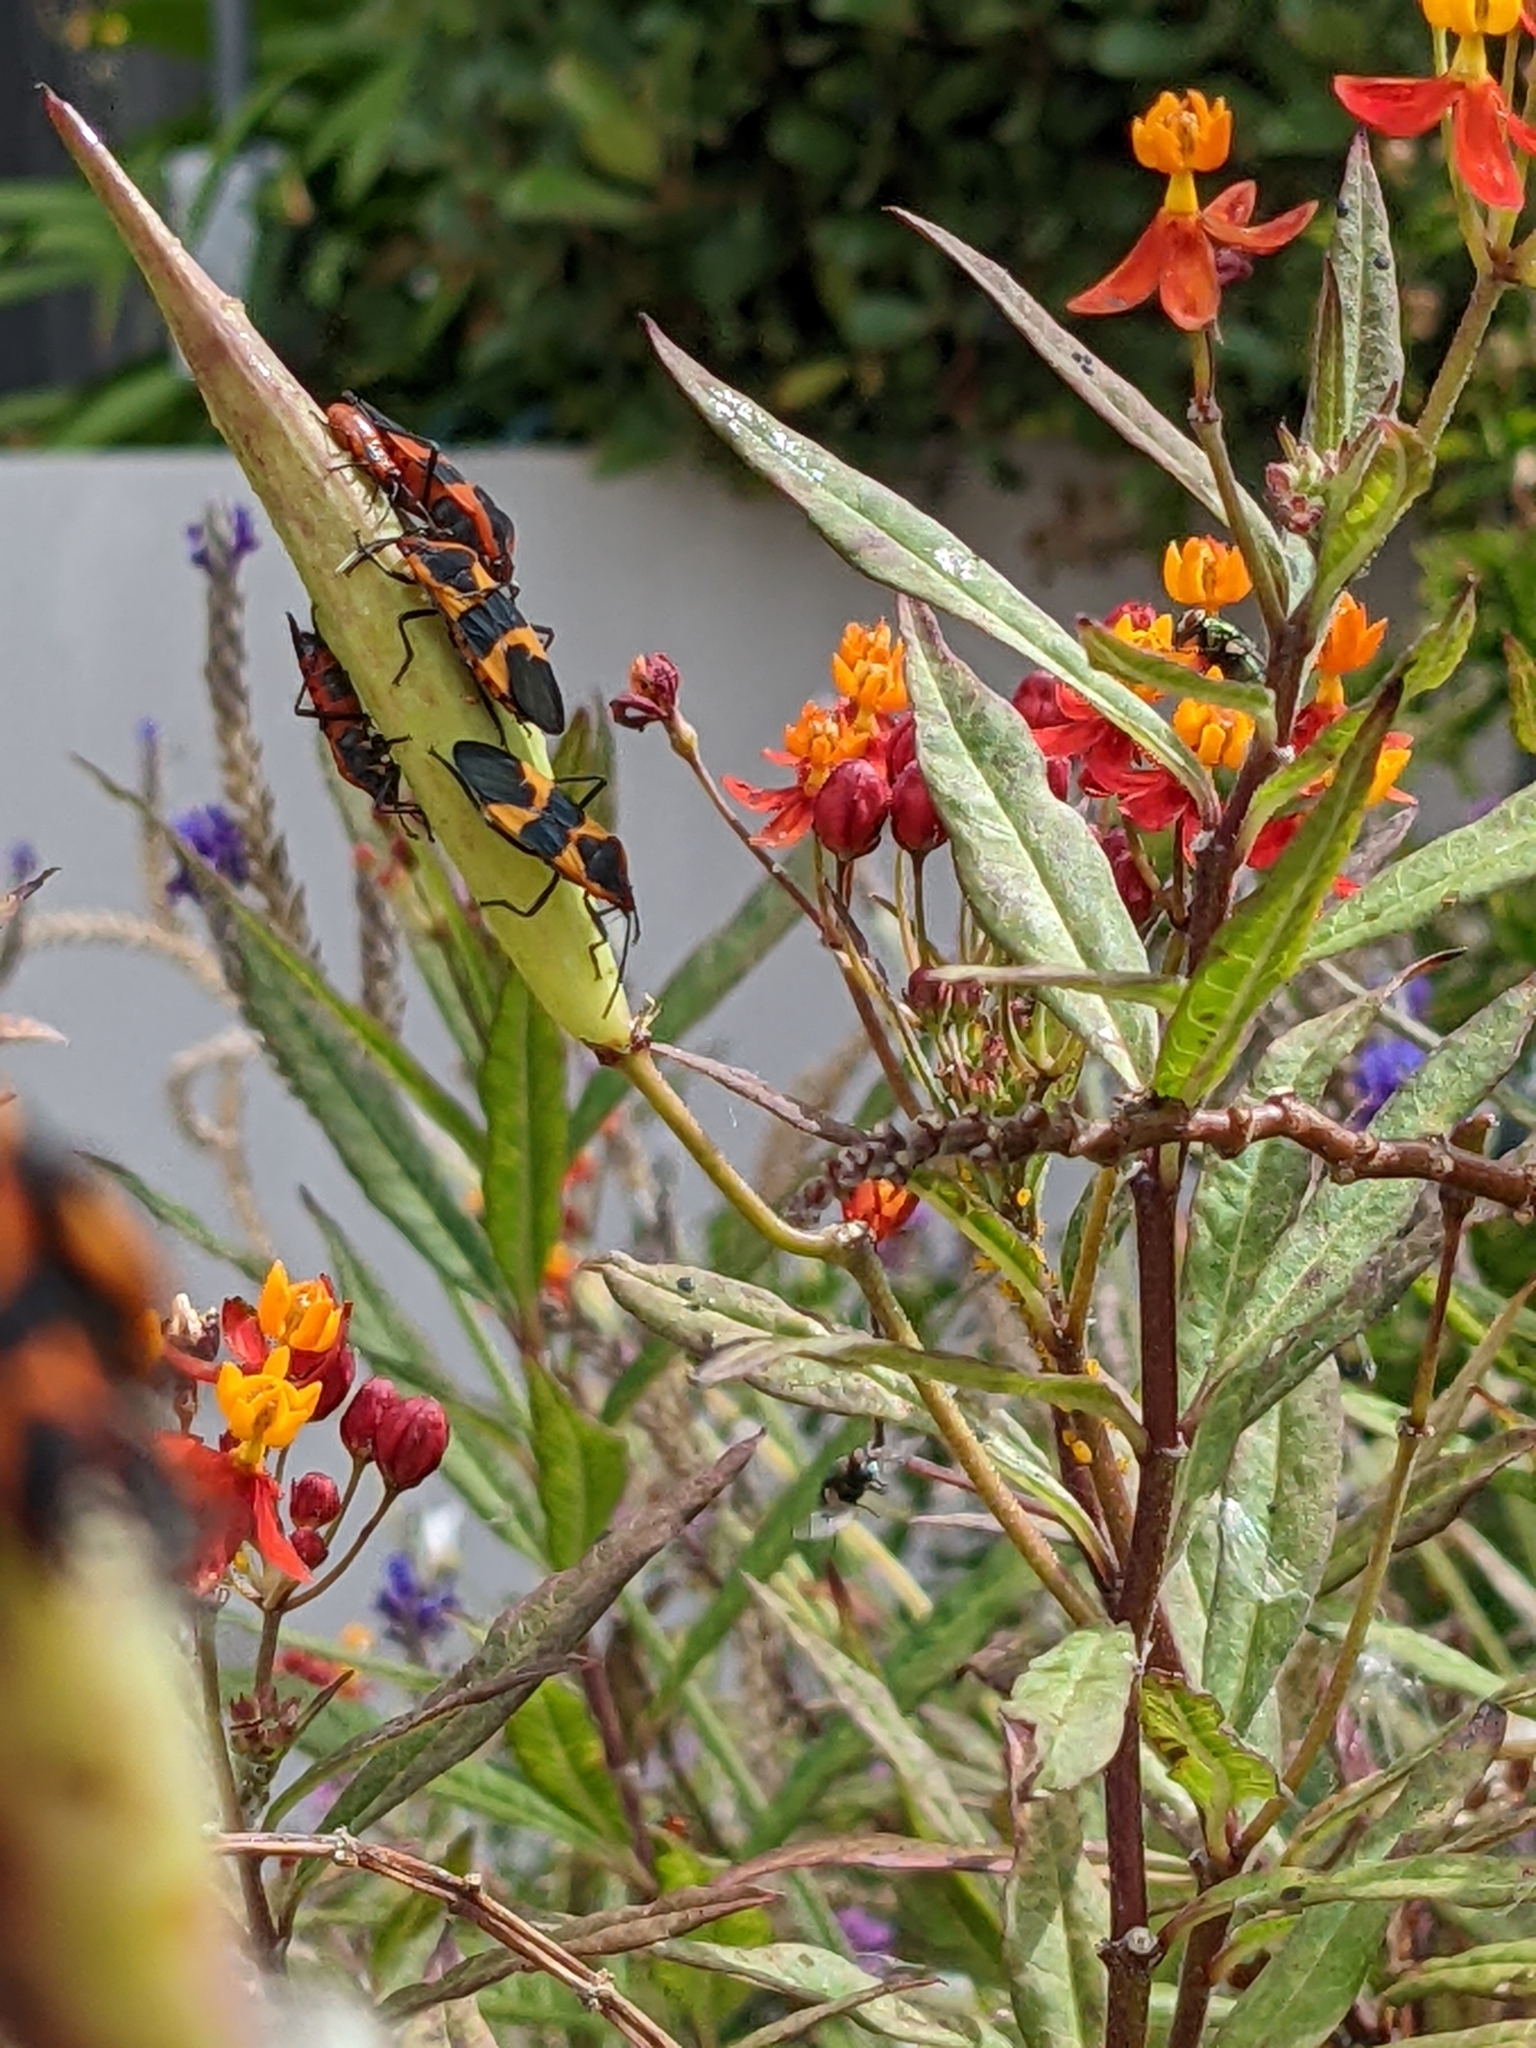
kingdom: Animalia
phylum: Arthropoda
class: Insecta
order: Hemiptera
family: Lygaeidae
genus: Oncopeltus
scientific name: Oncopeltus fasciatus
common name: Large milkweed bug
